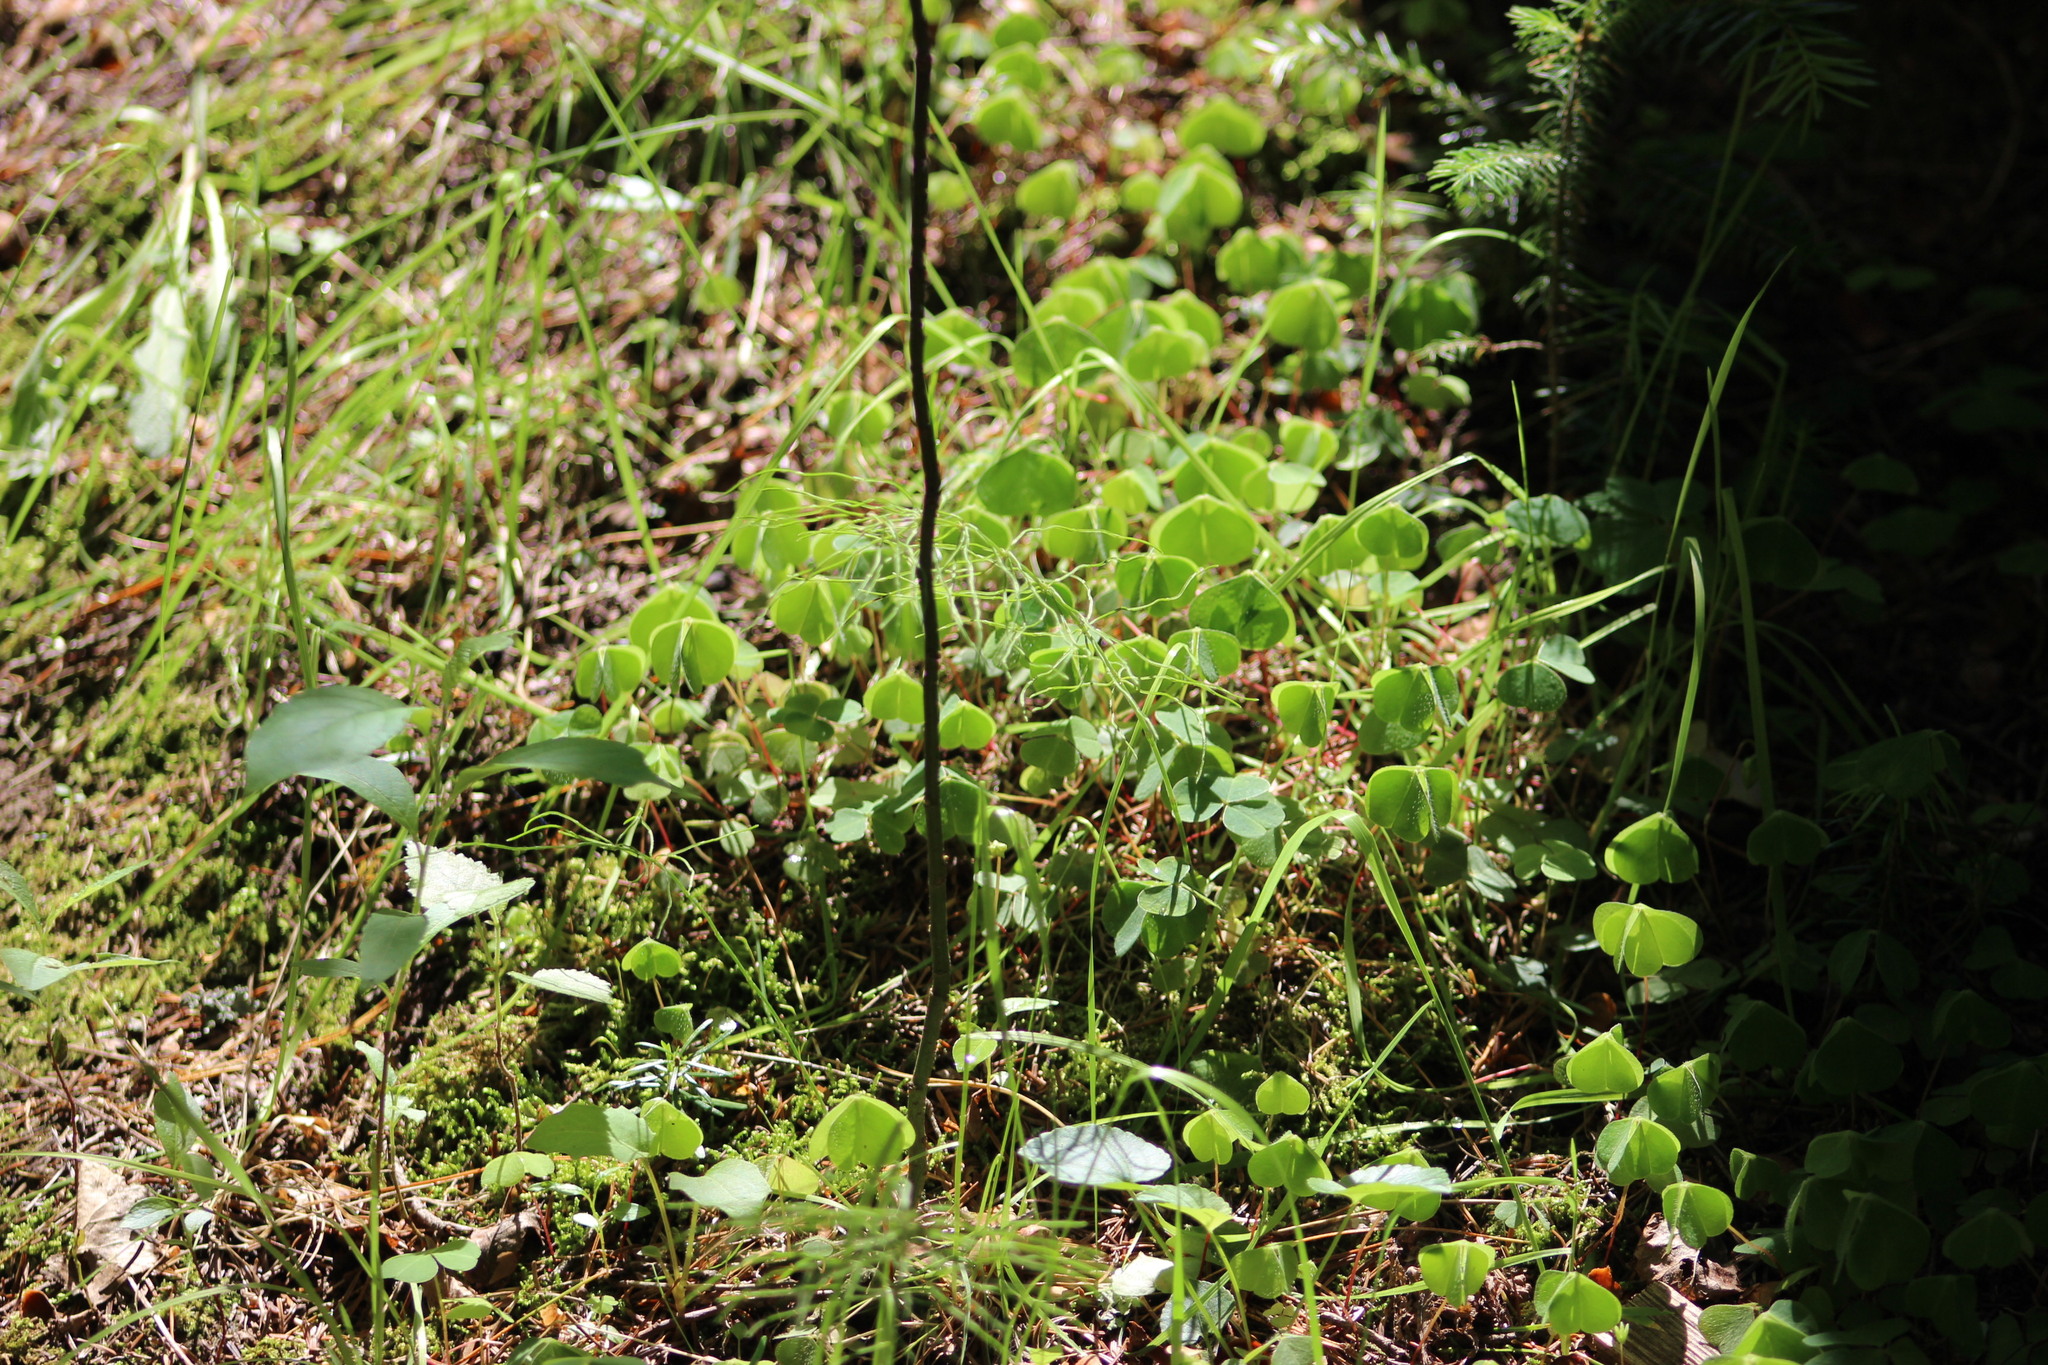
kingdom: Plantae
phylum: Tracheophyta
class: Magnoliopsida
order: Oxalidales
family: Oxalidaceae
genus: Oxalis
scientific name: Oxalis acetosella
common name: Wood-sorrel
